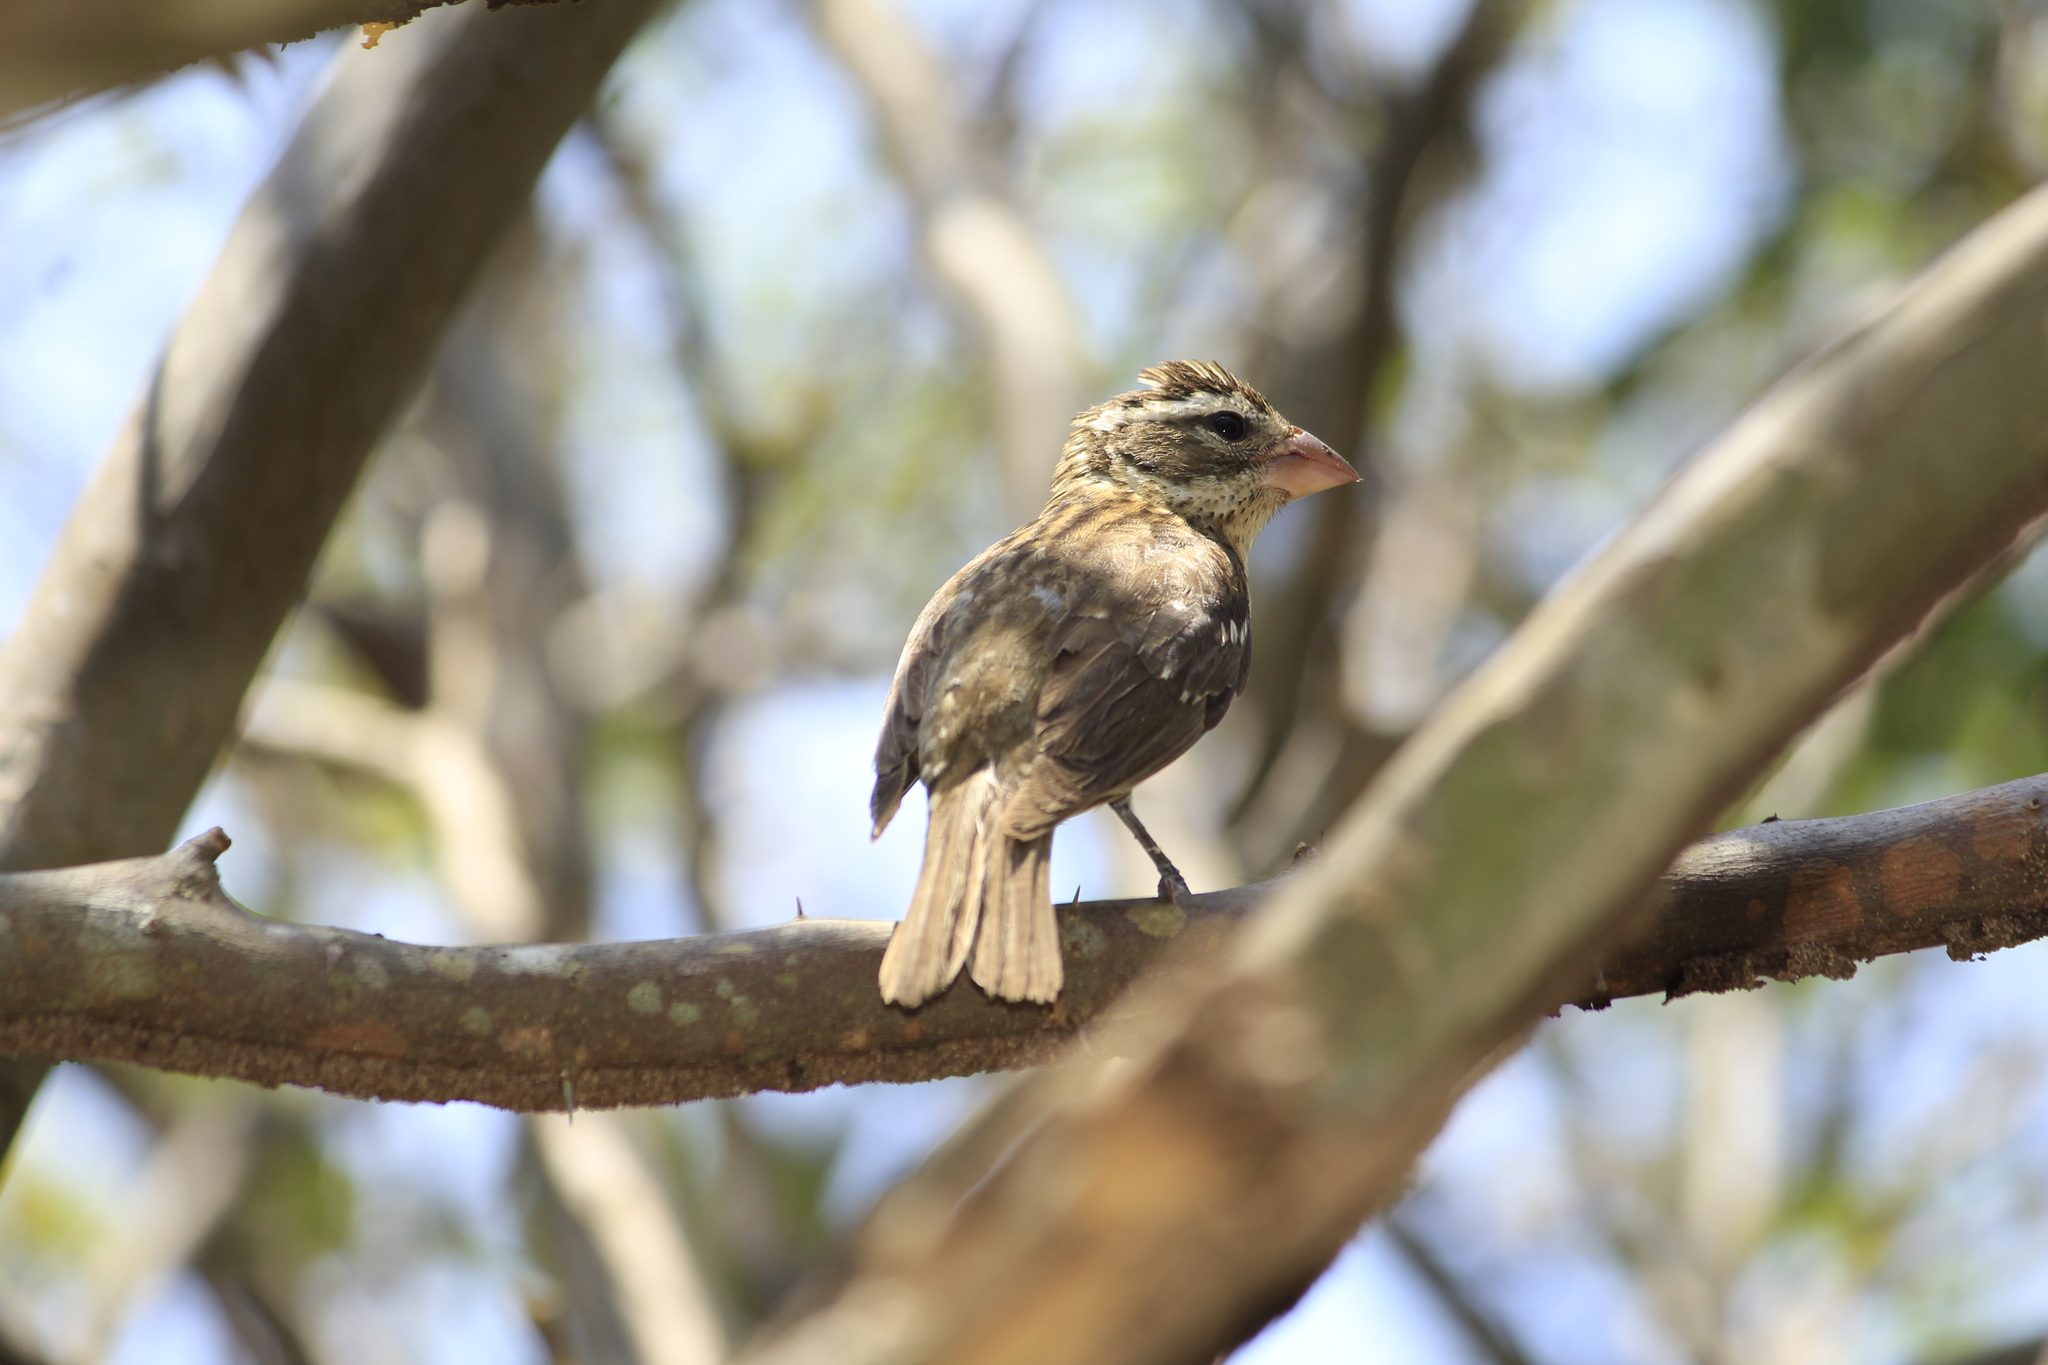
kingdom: Animalia
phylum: Chordata
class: Aves
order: Passeriformes
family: Cardinalidae
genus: Pheucticus
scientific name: Pheucticus ludovicianus
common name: Rose-breasted grosbeak
